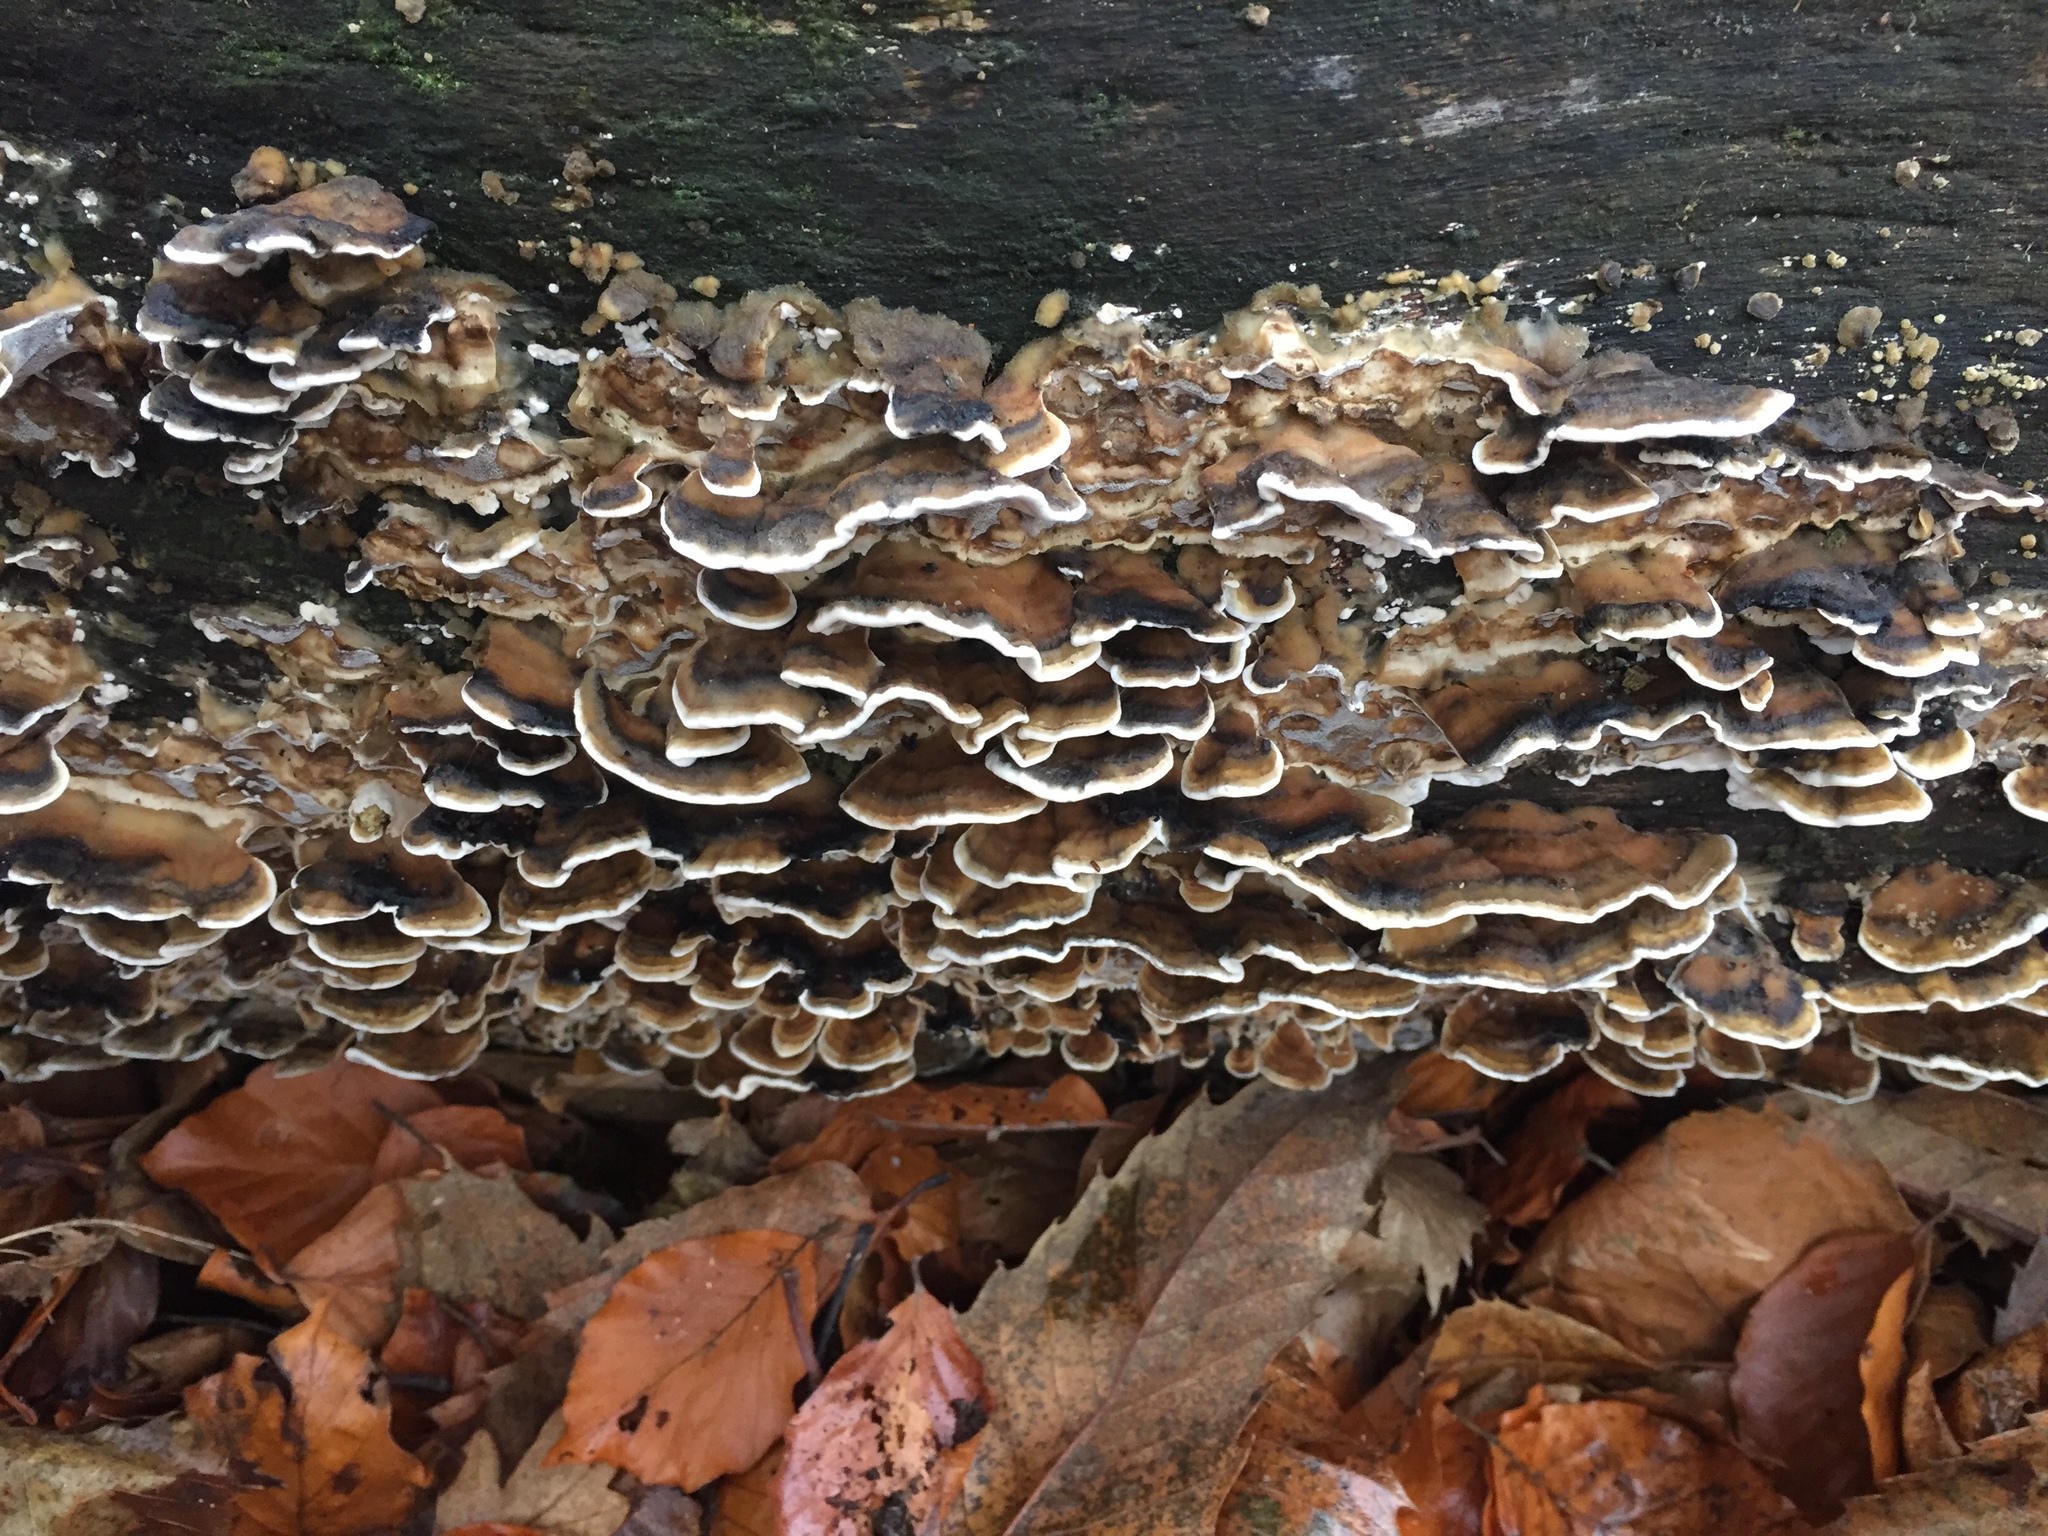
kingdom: Fungi
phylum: Basidiomycota
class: Agaricomycetes
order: Polyporales
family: Phanerochaetaceae
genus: Bjerkandera
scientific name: Bjerkandera adusta
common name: Smoky bracket
